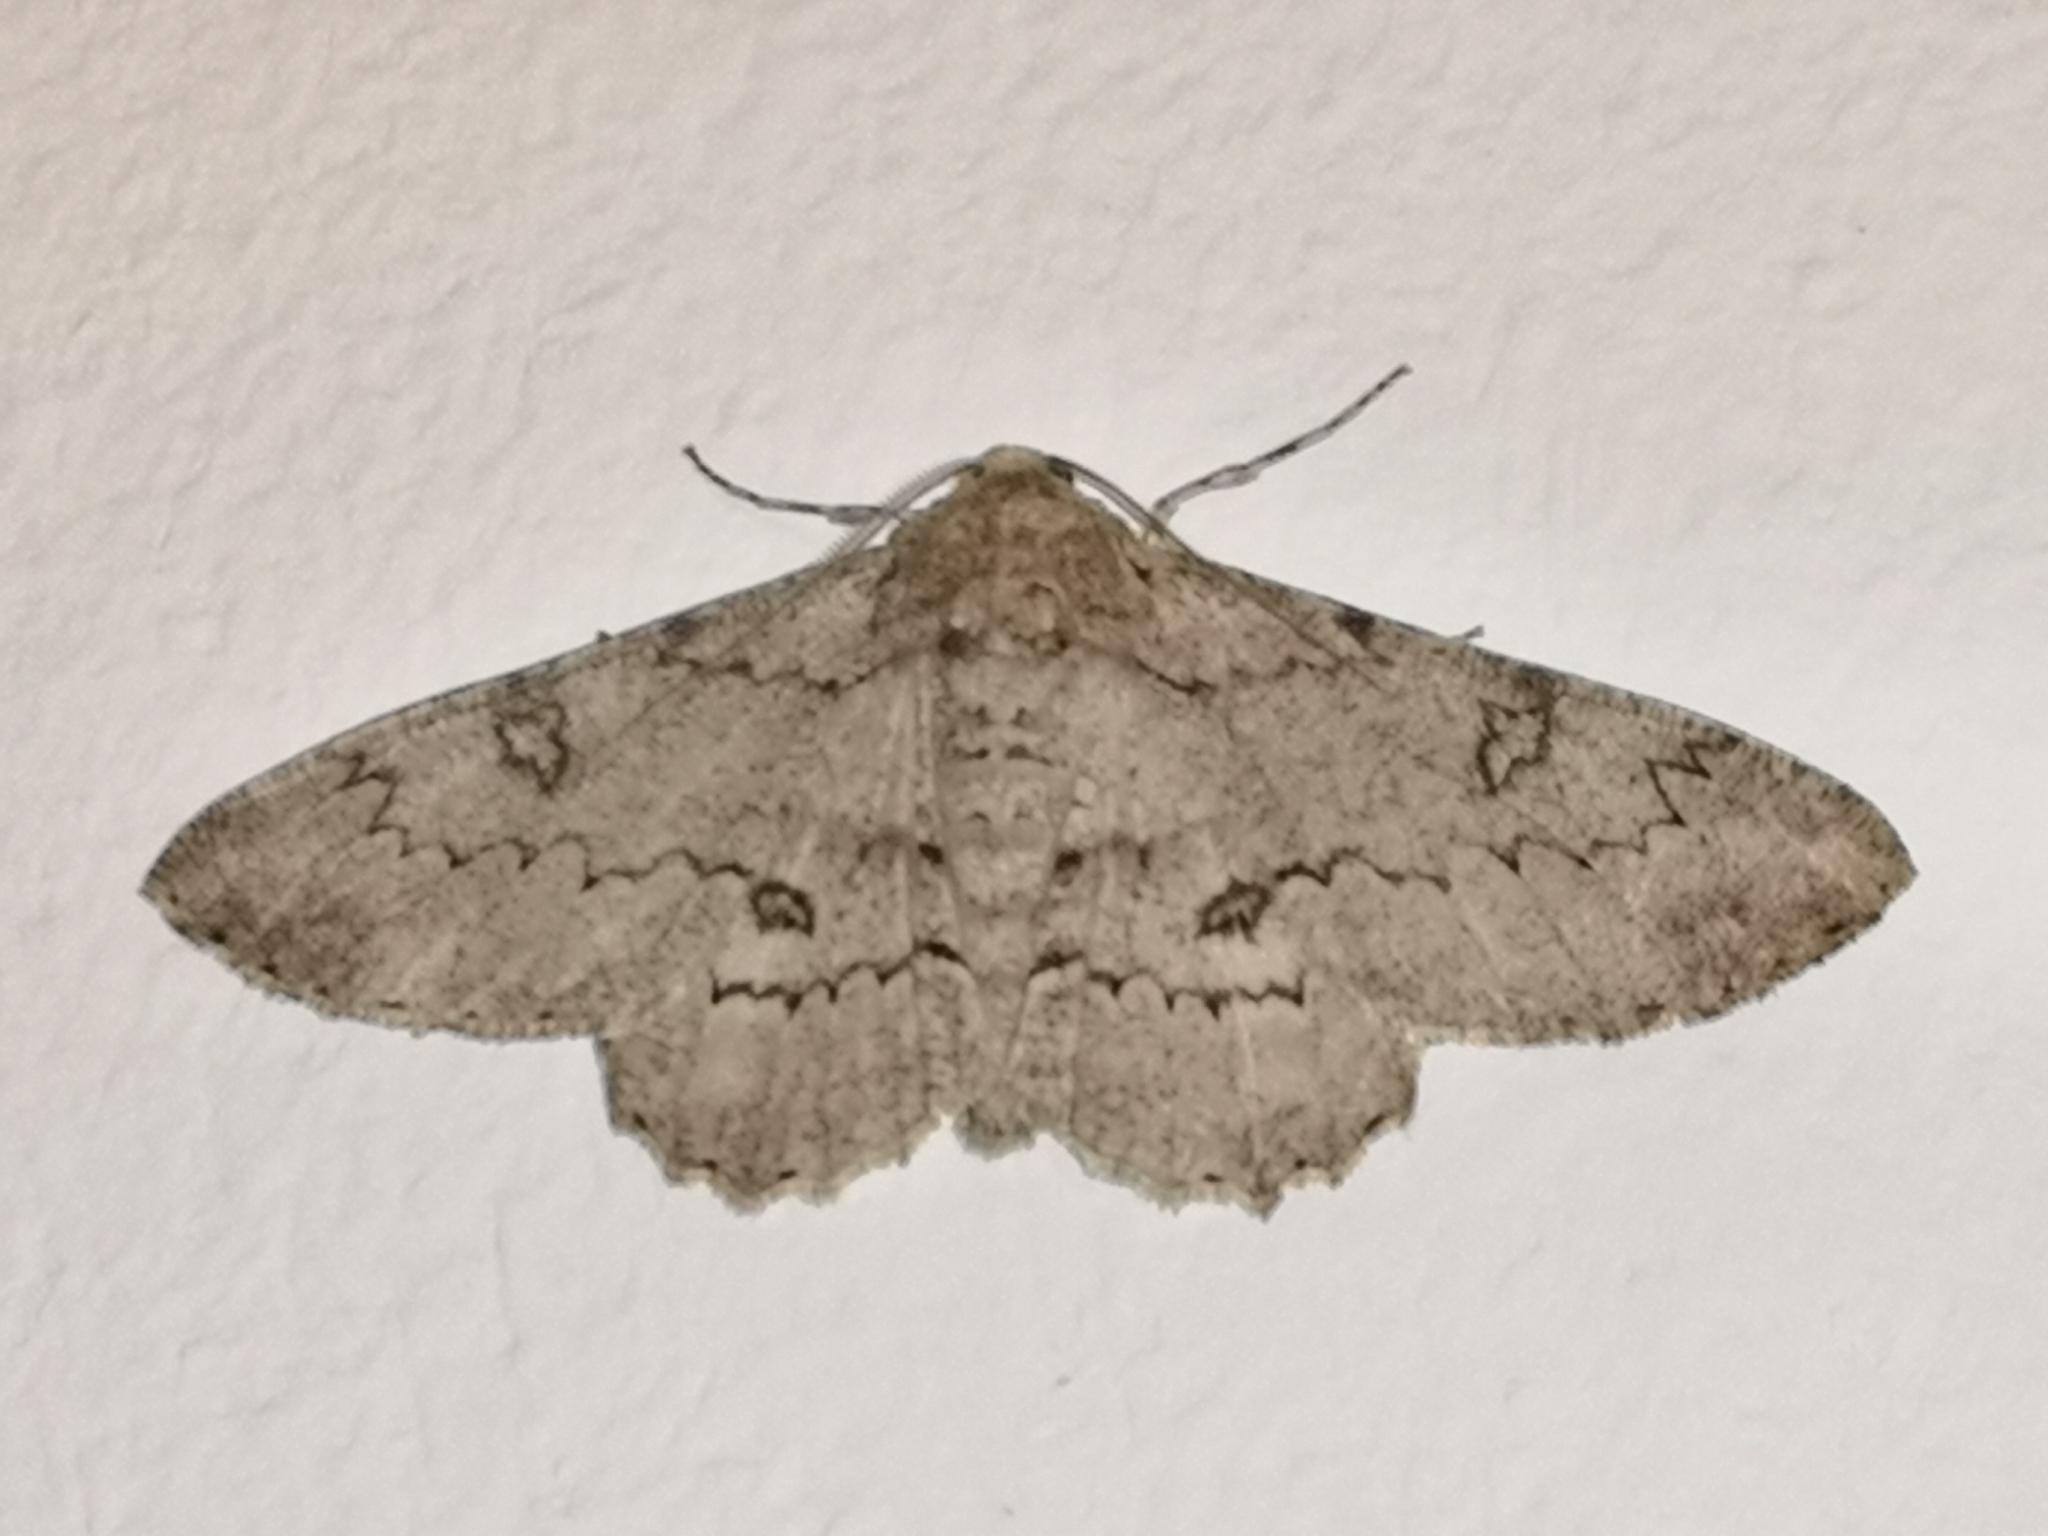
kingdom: Animalia
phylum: Arthropoda
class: Insecta
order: Lepidoptera
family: Geometridae
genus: Ascotis
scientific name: Ascotis selenaria
